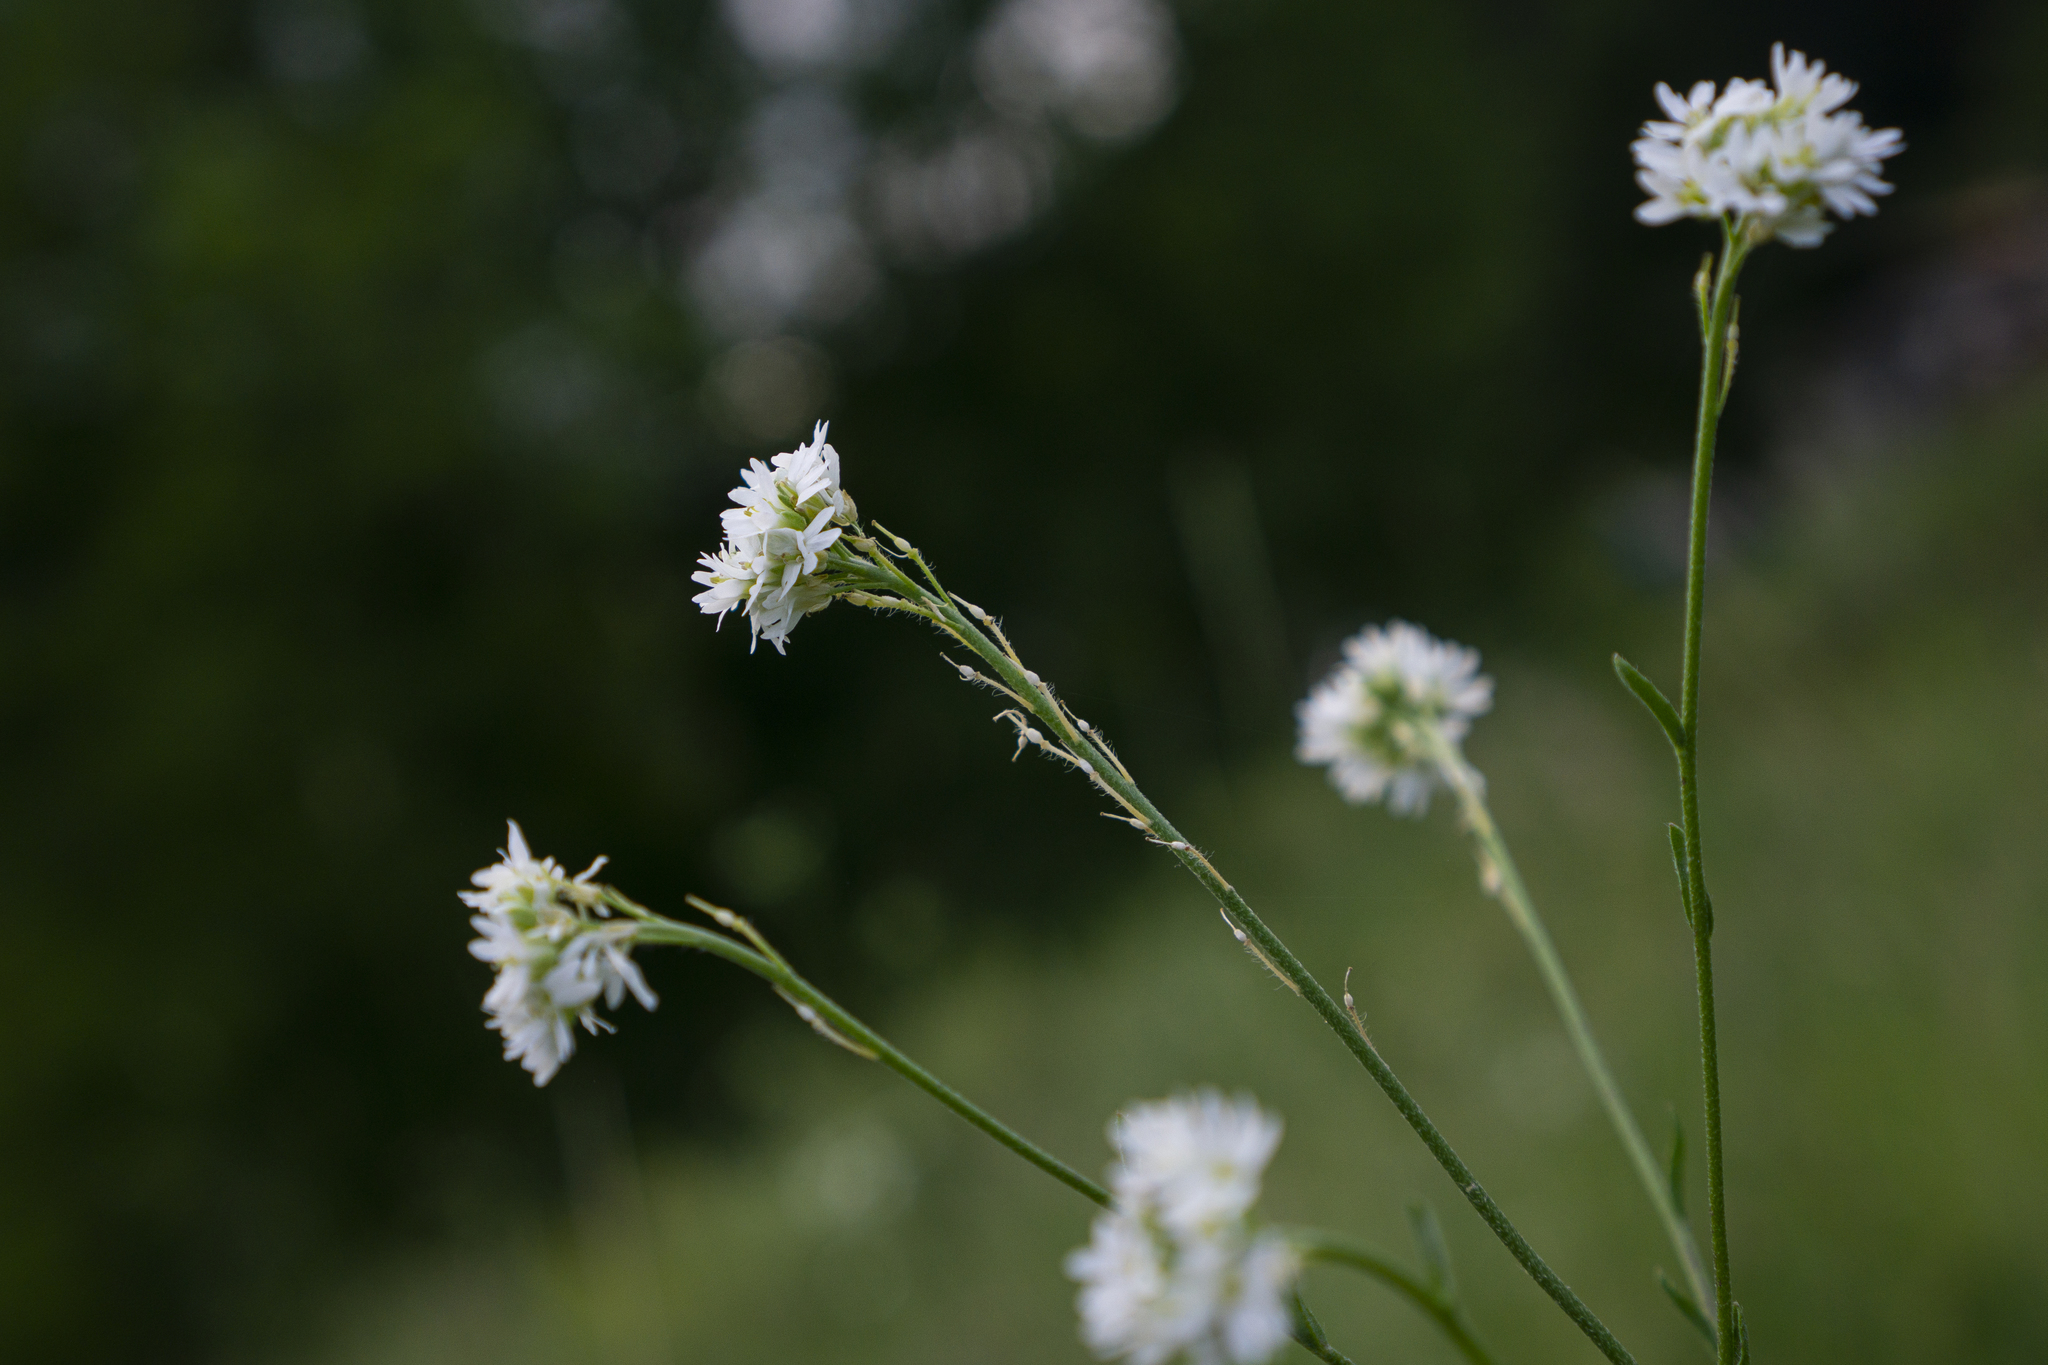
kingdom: Plantae
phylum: Tracheophyta
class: Magnoliopsida
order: Brassicales
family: Brassicaceae
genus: Berteroa
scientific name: Berteroa incana
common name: Hoary alison
